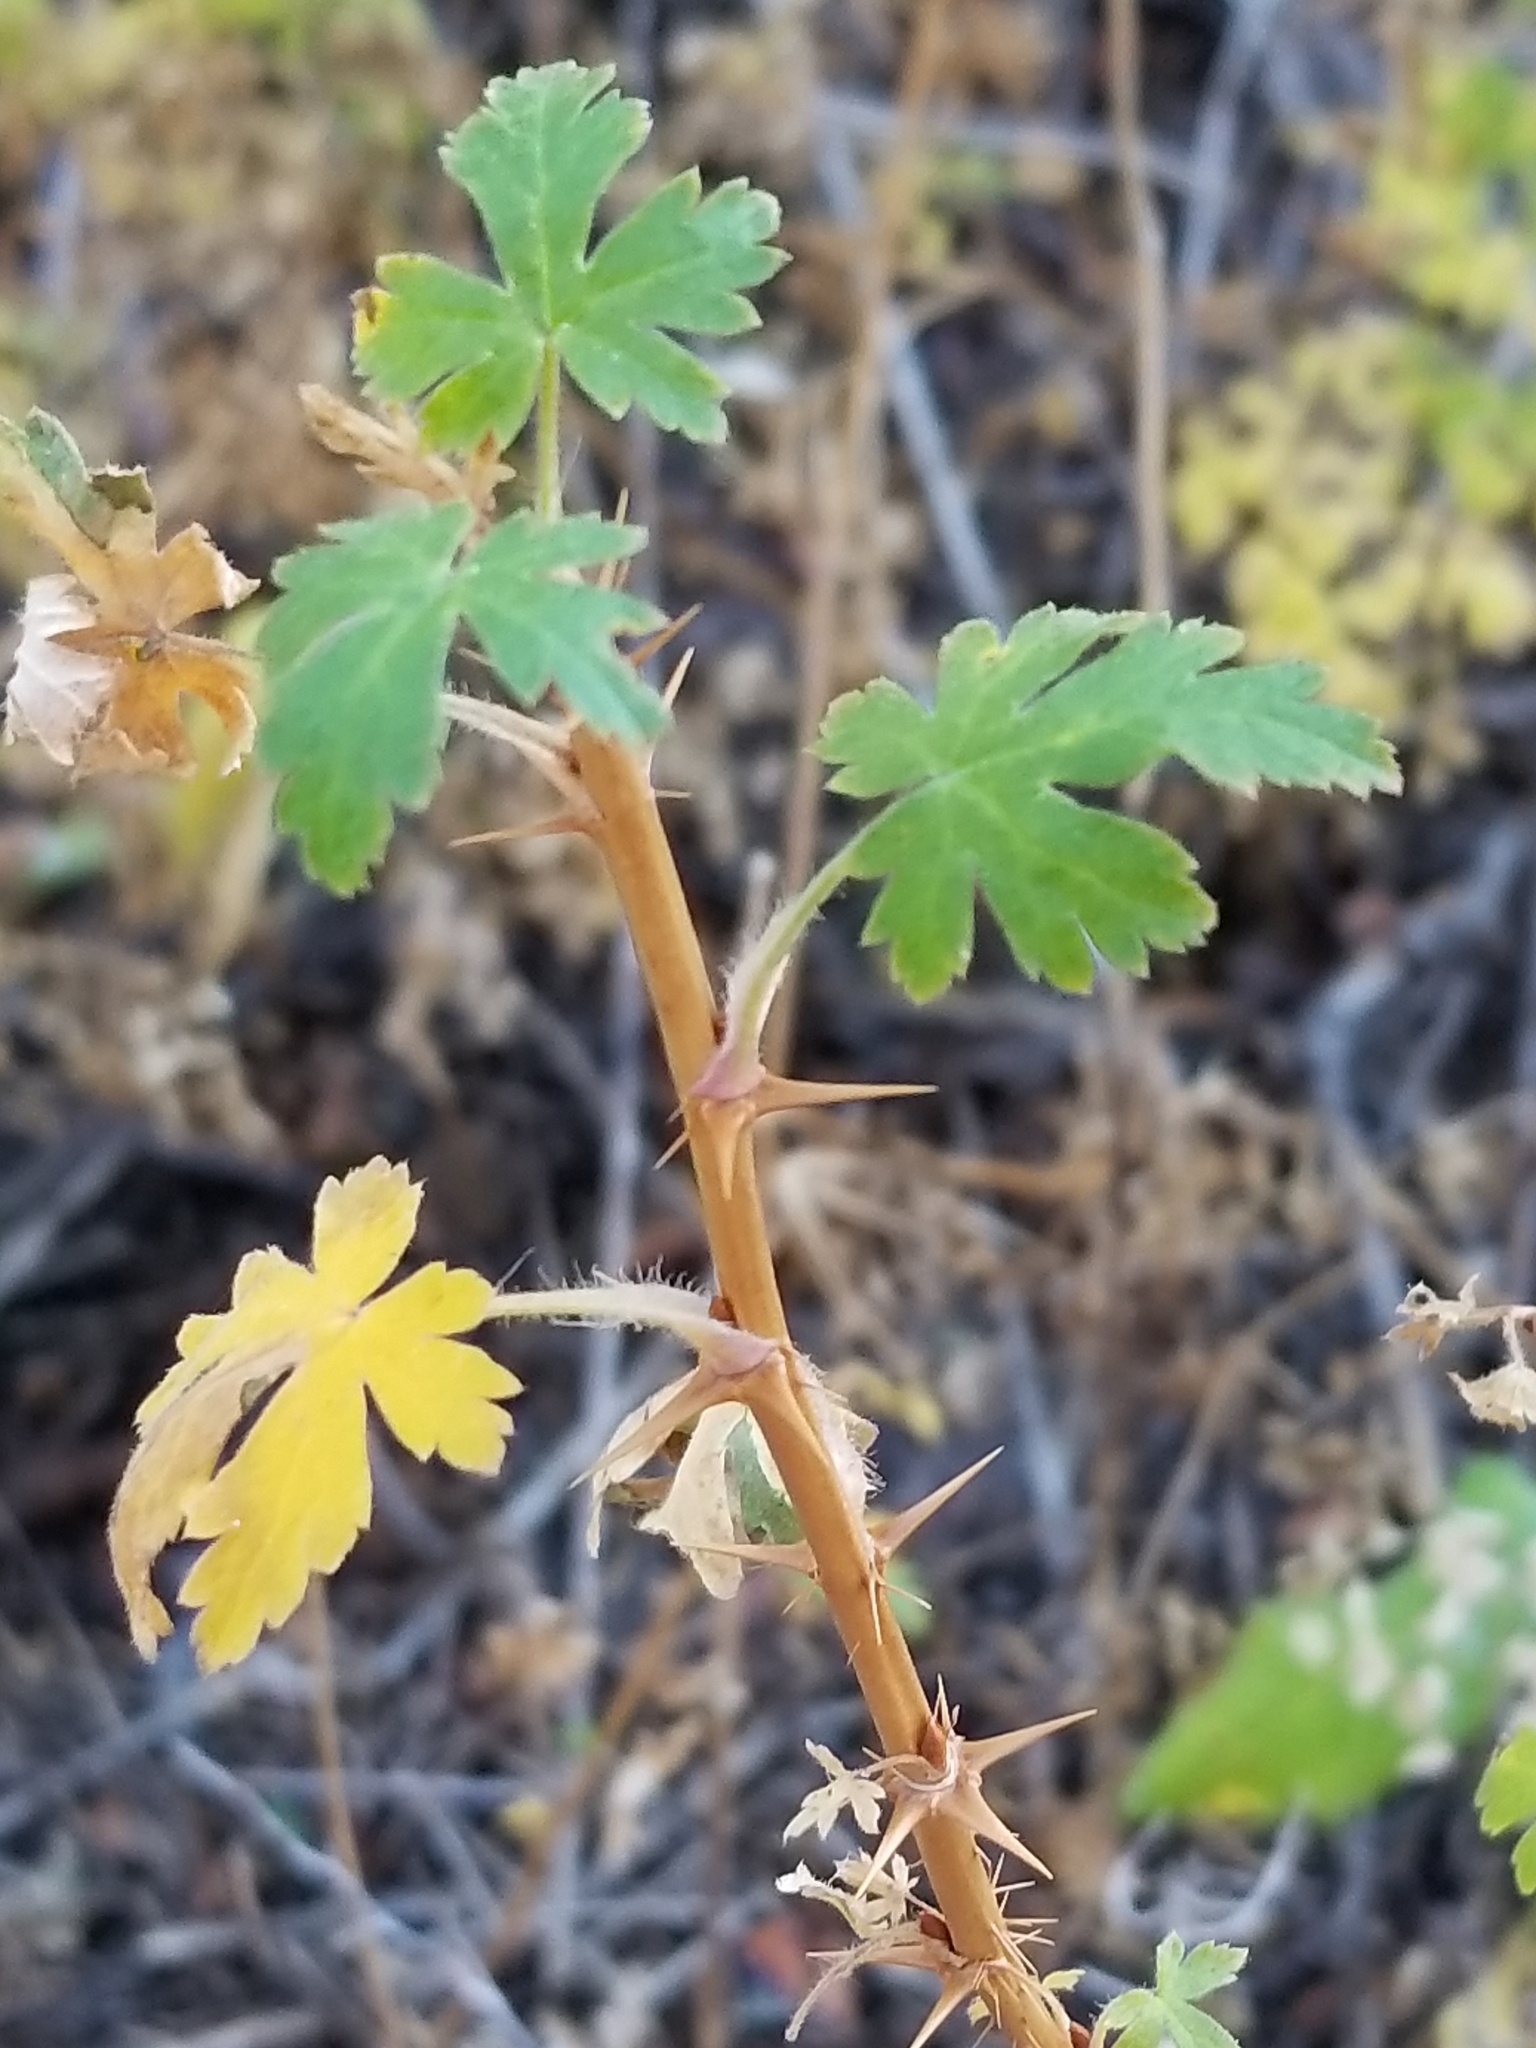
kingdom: Plantae
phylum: Tracheophyta
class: Magnoliopsida
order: Saxifragales
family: Grossulariaceae
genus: Ribes
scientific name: Ribes montigenum
